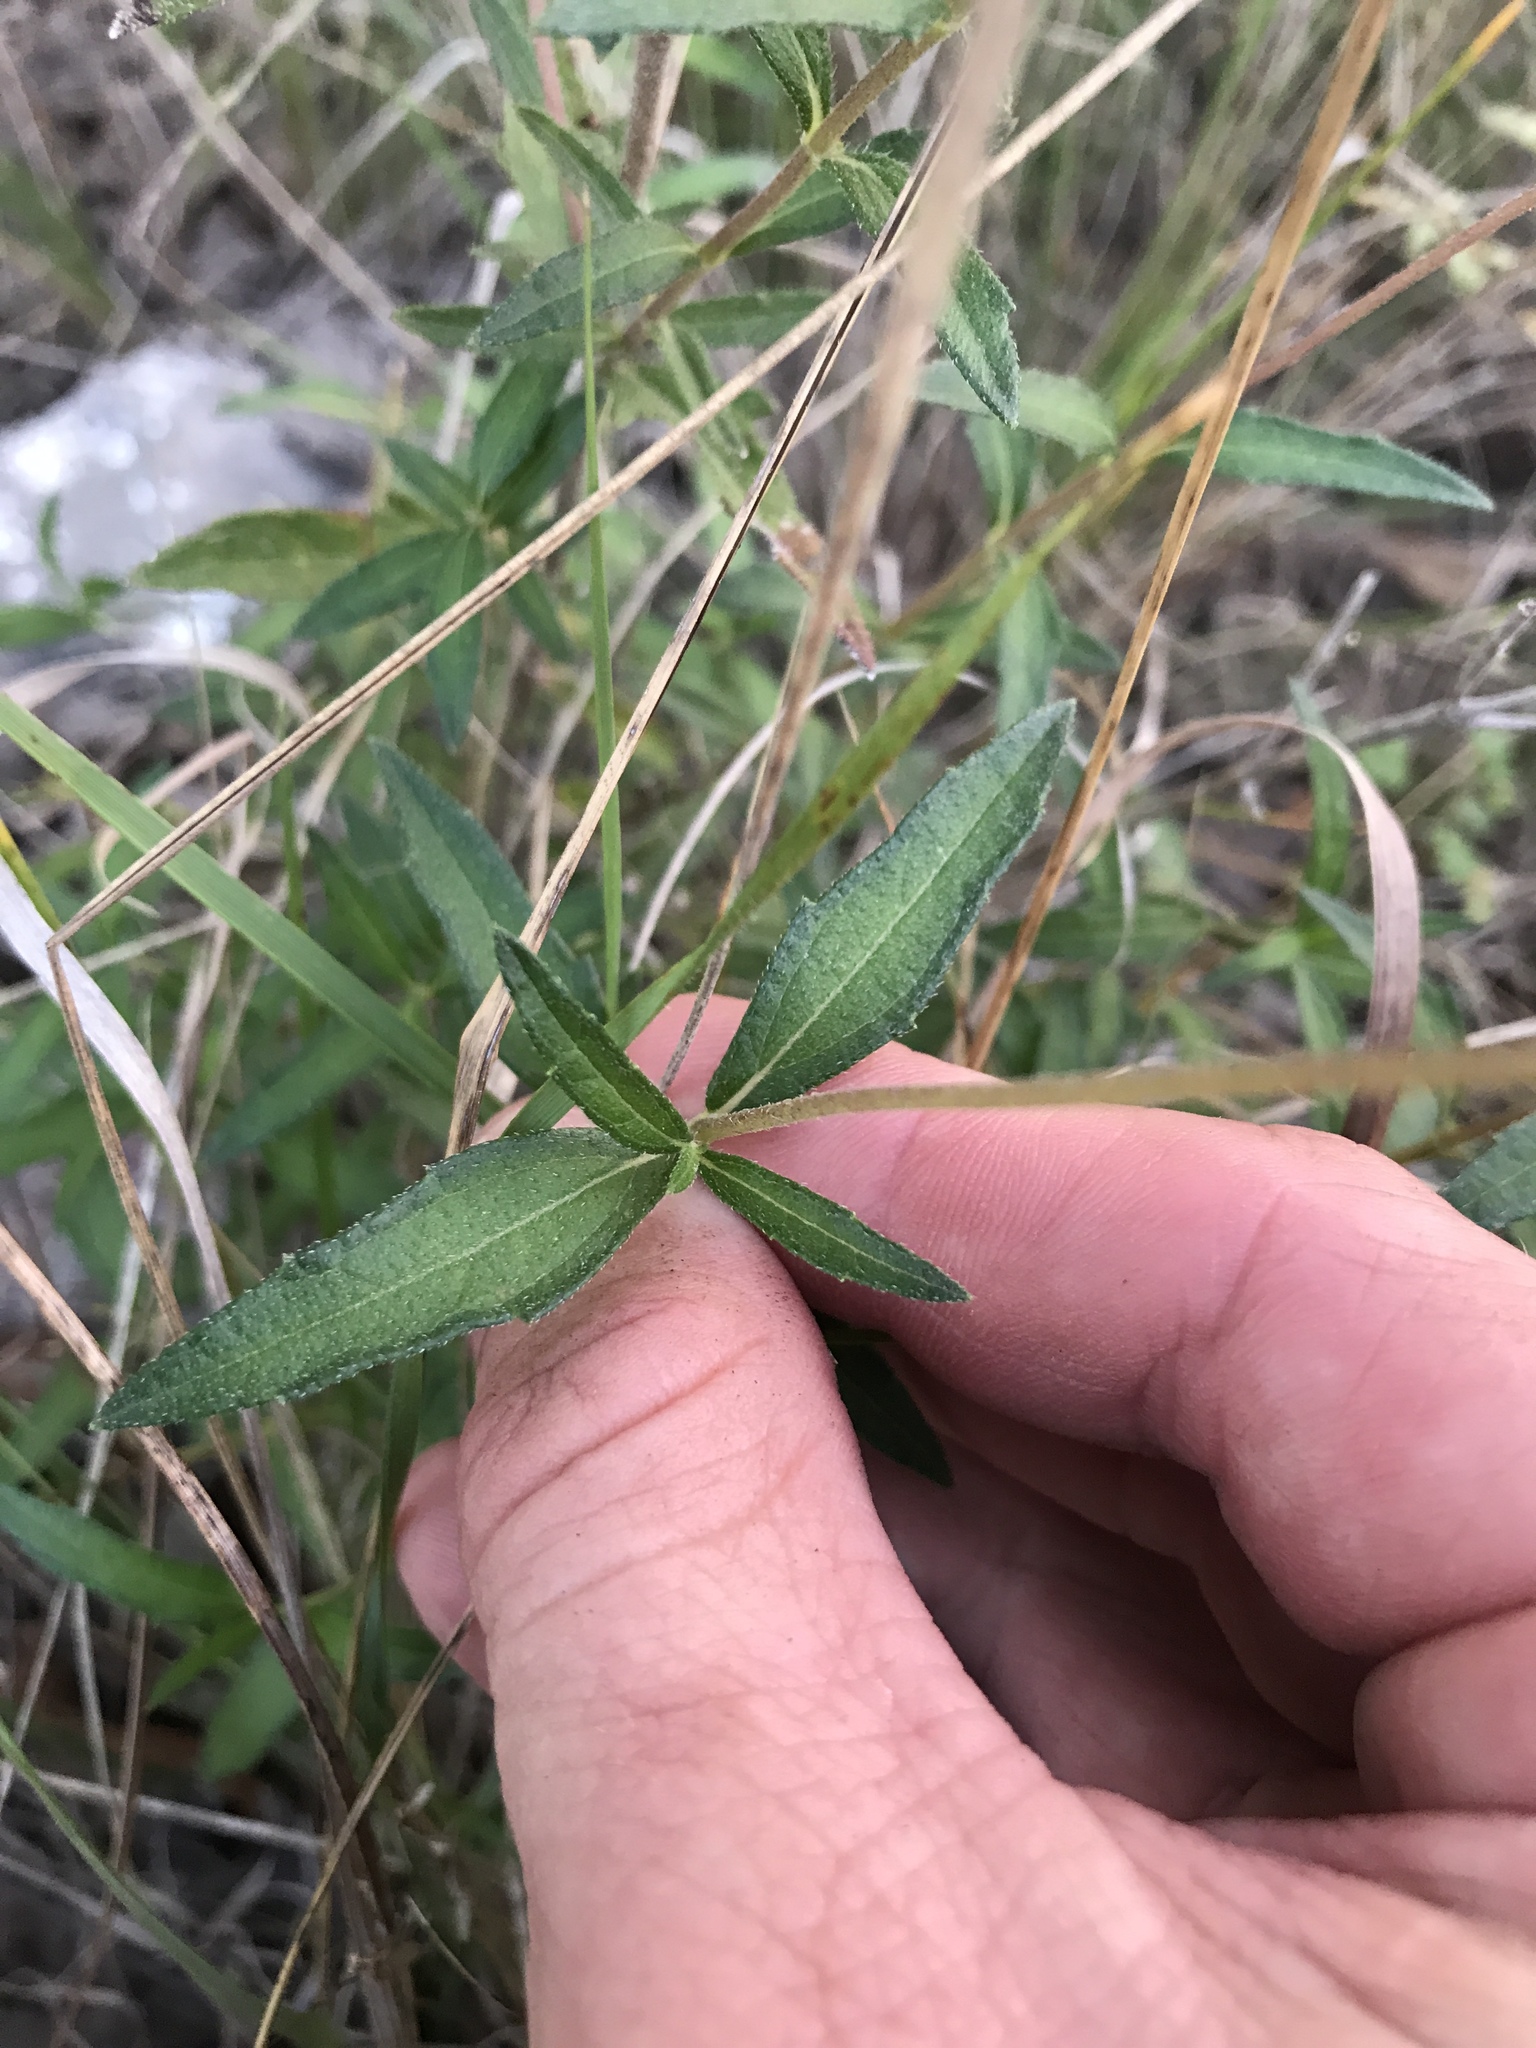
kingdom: Plantae
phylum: Tracheophyta
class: Magnoliopsida
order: Asterales
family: Asteraceae
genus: Wedelia
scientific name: Wedelia acapulcensis
